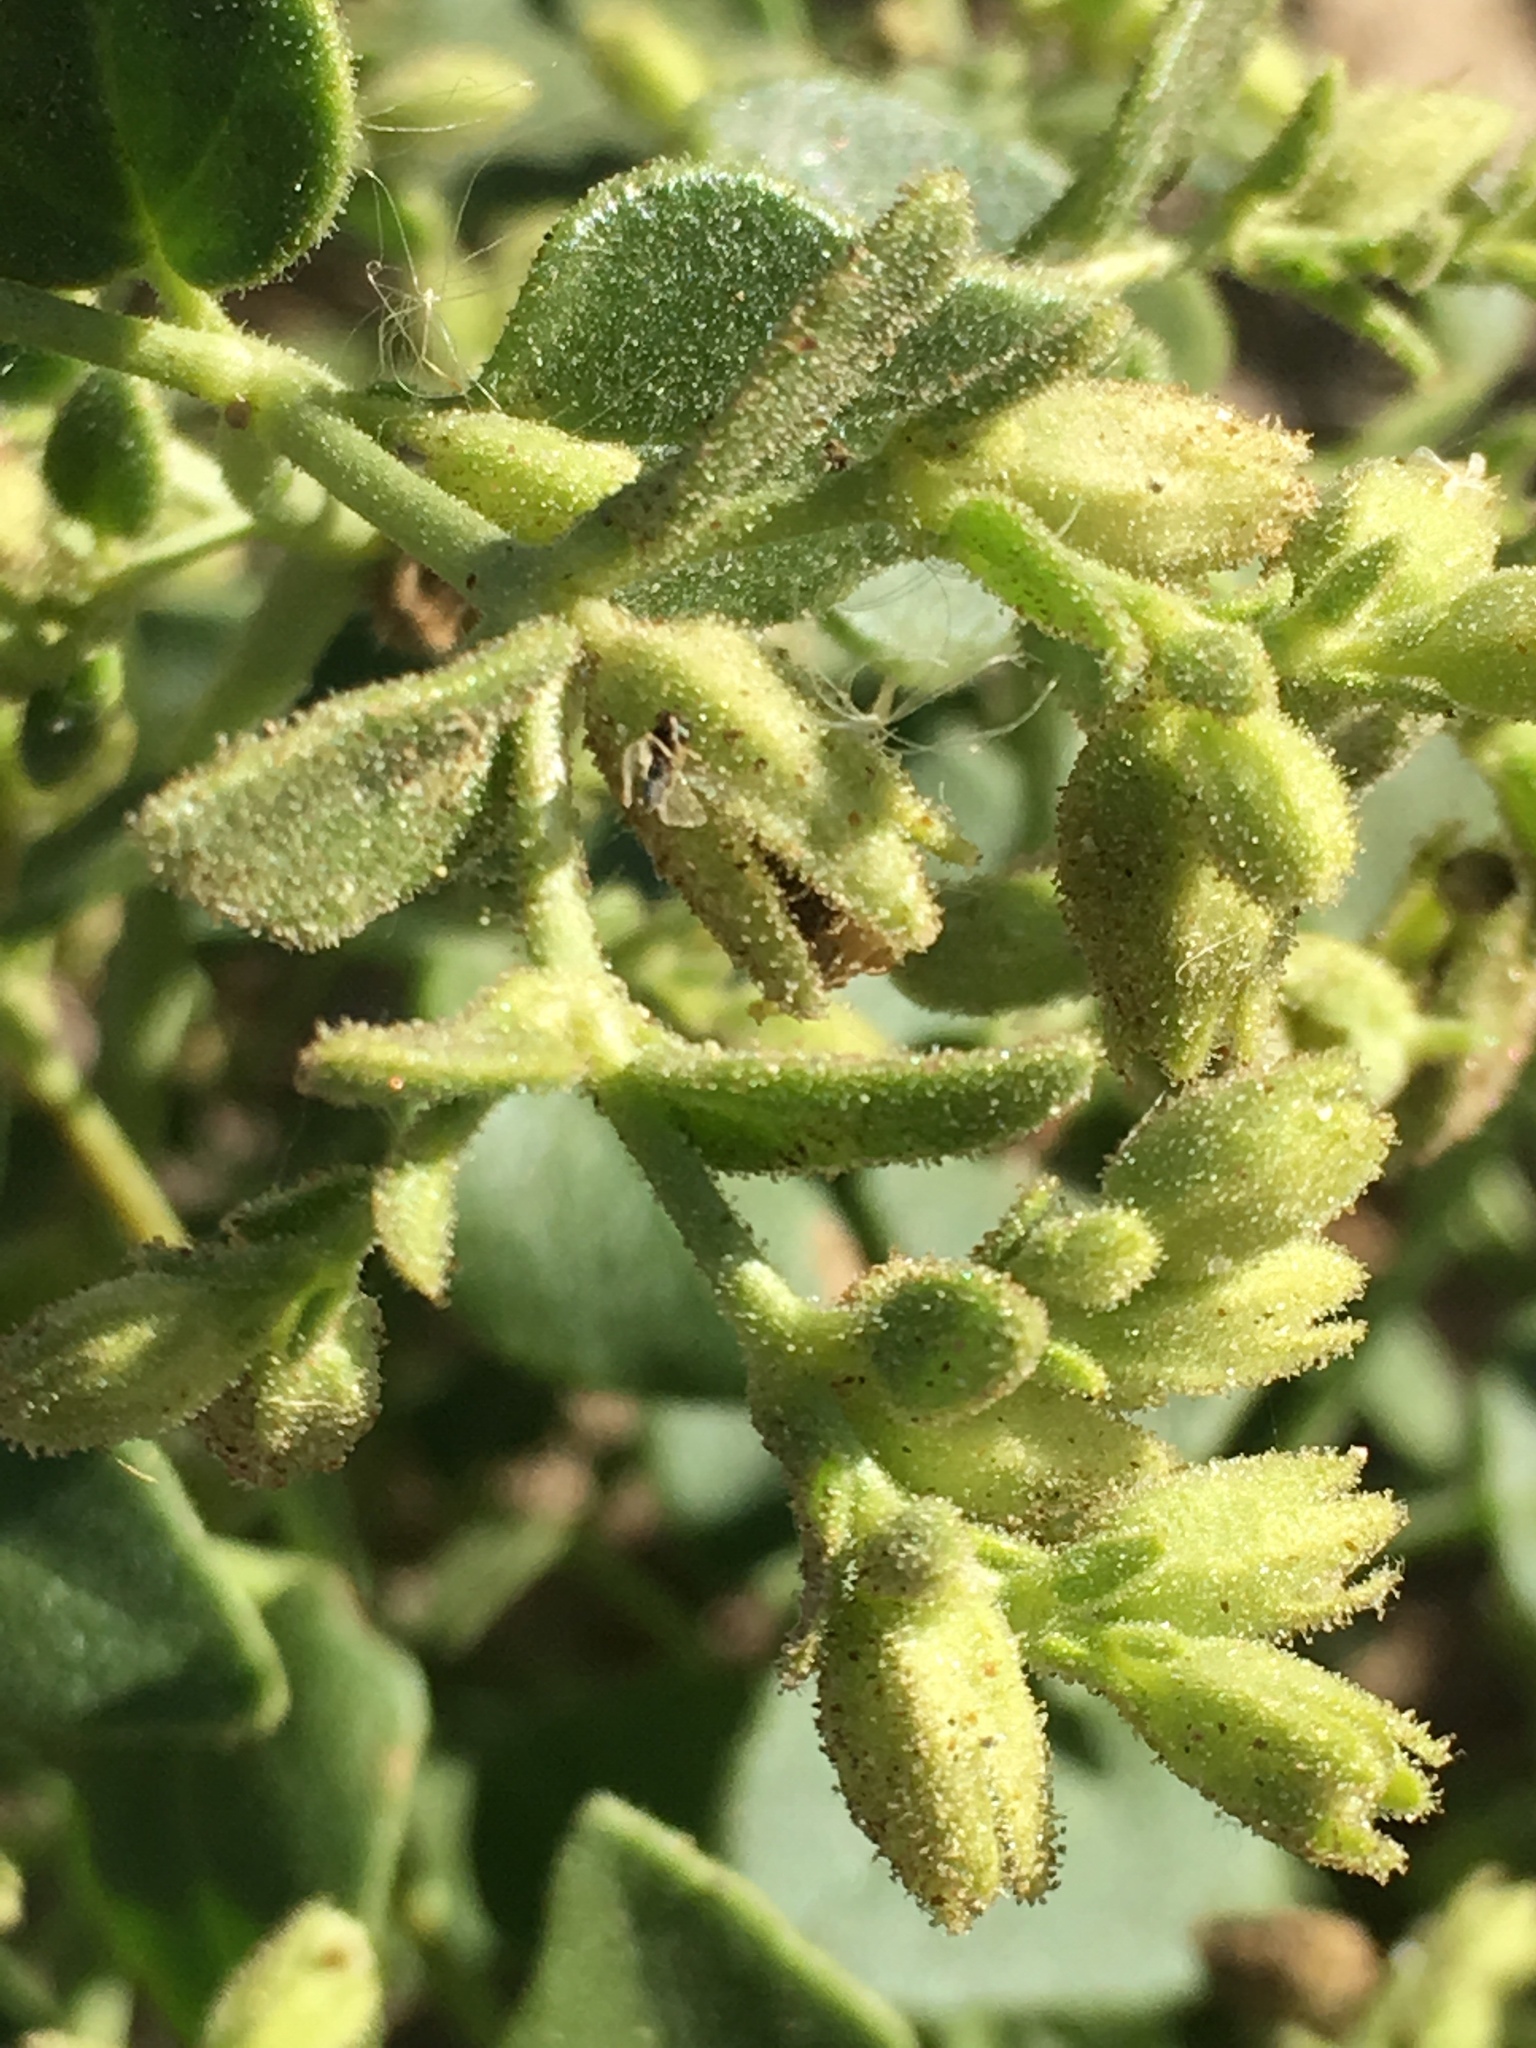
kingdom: Plantae
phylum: Tracheophyta
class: Magnoliopsida
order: Caryophyllales
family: Nyctaginaceae
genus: Mirabilis
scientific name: Mirabilis laevis
